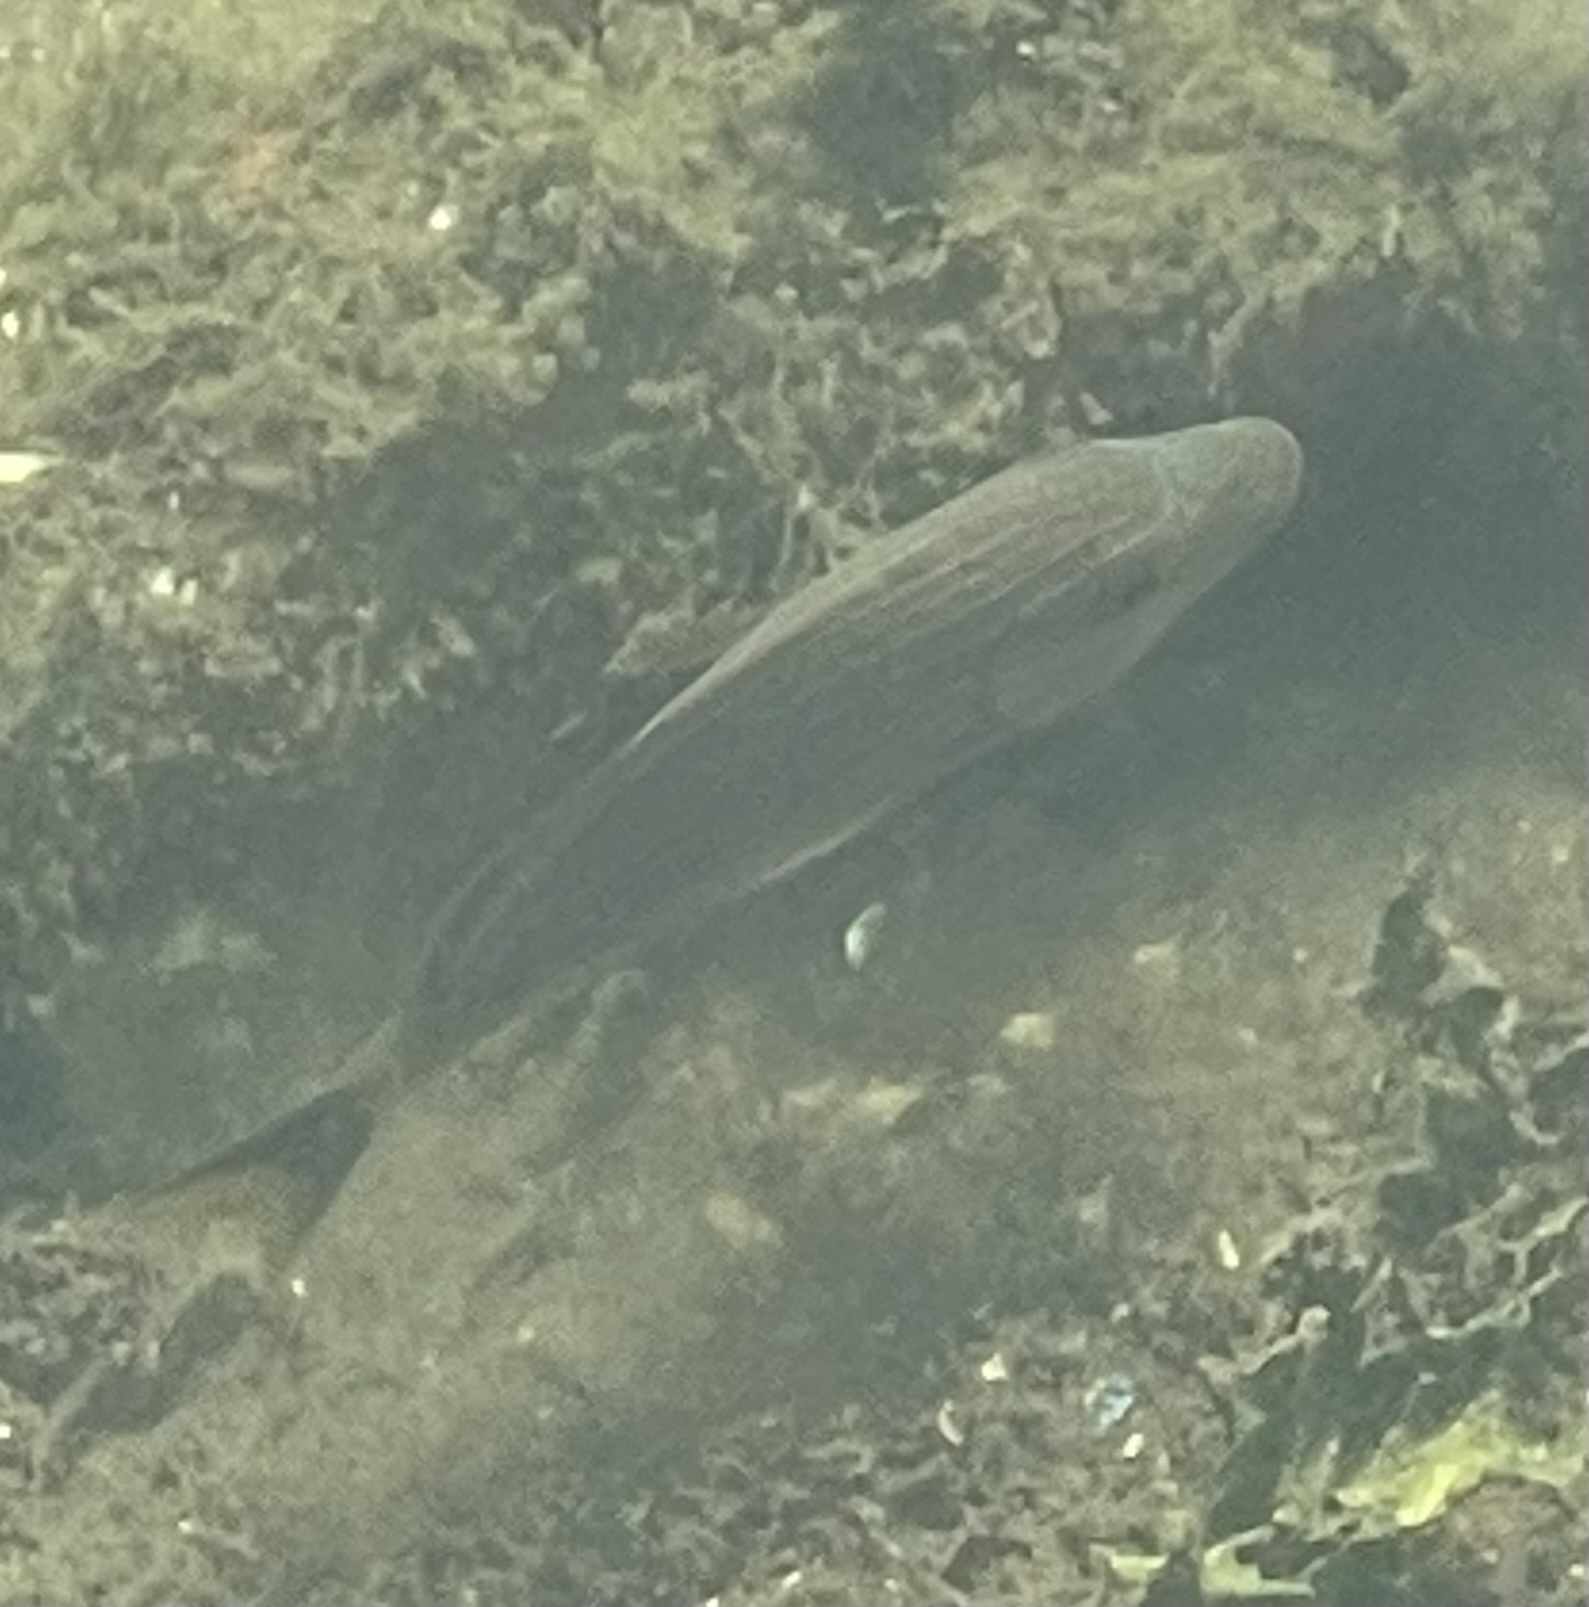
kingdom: Animalia
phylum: Chordata
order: Perciformes
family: Haemulidae
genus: Haemulon
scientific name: Haemulon sciurus
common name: Bluestriped grunt
